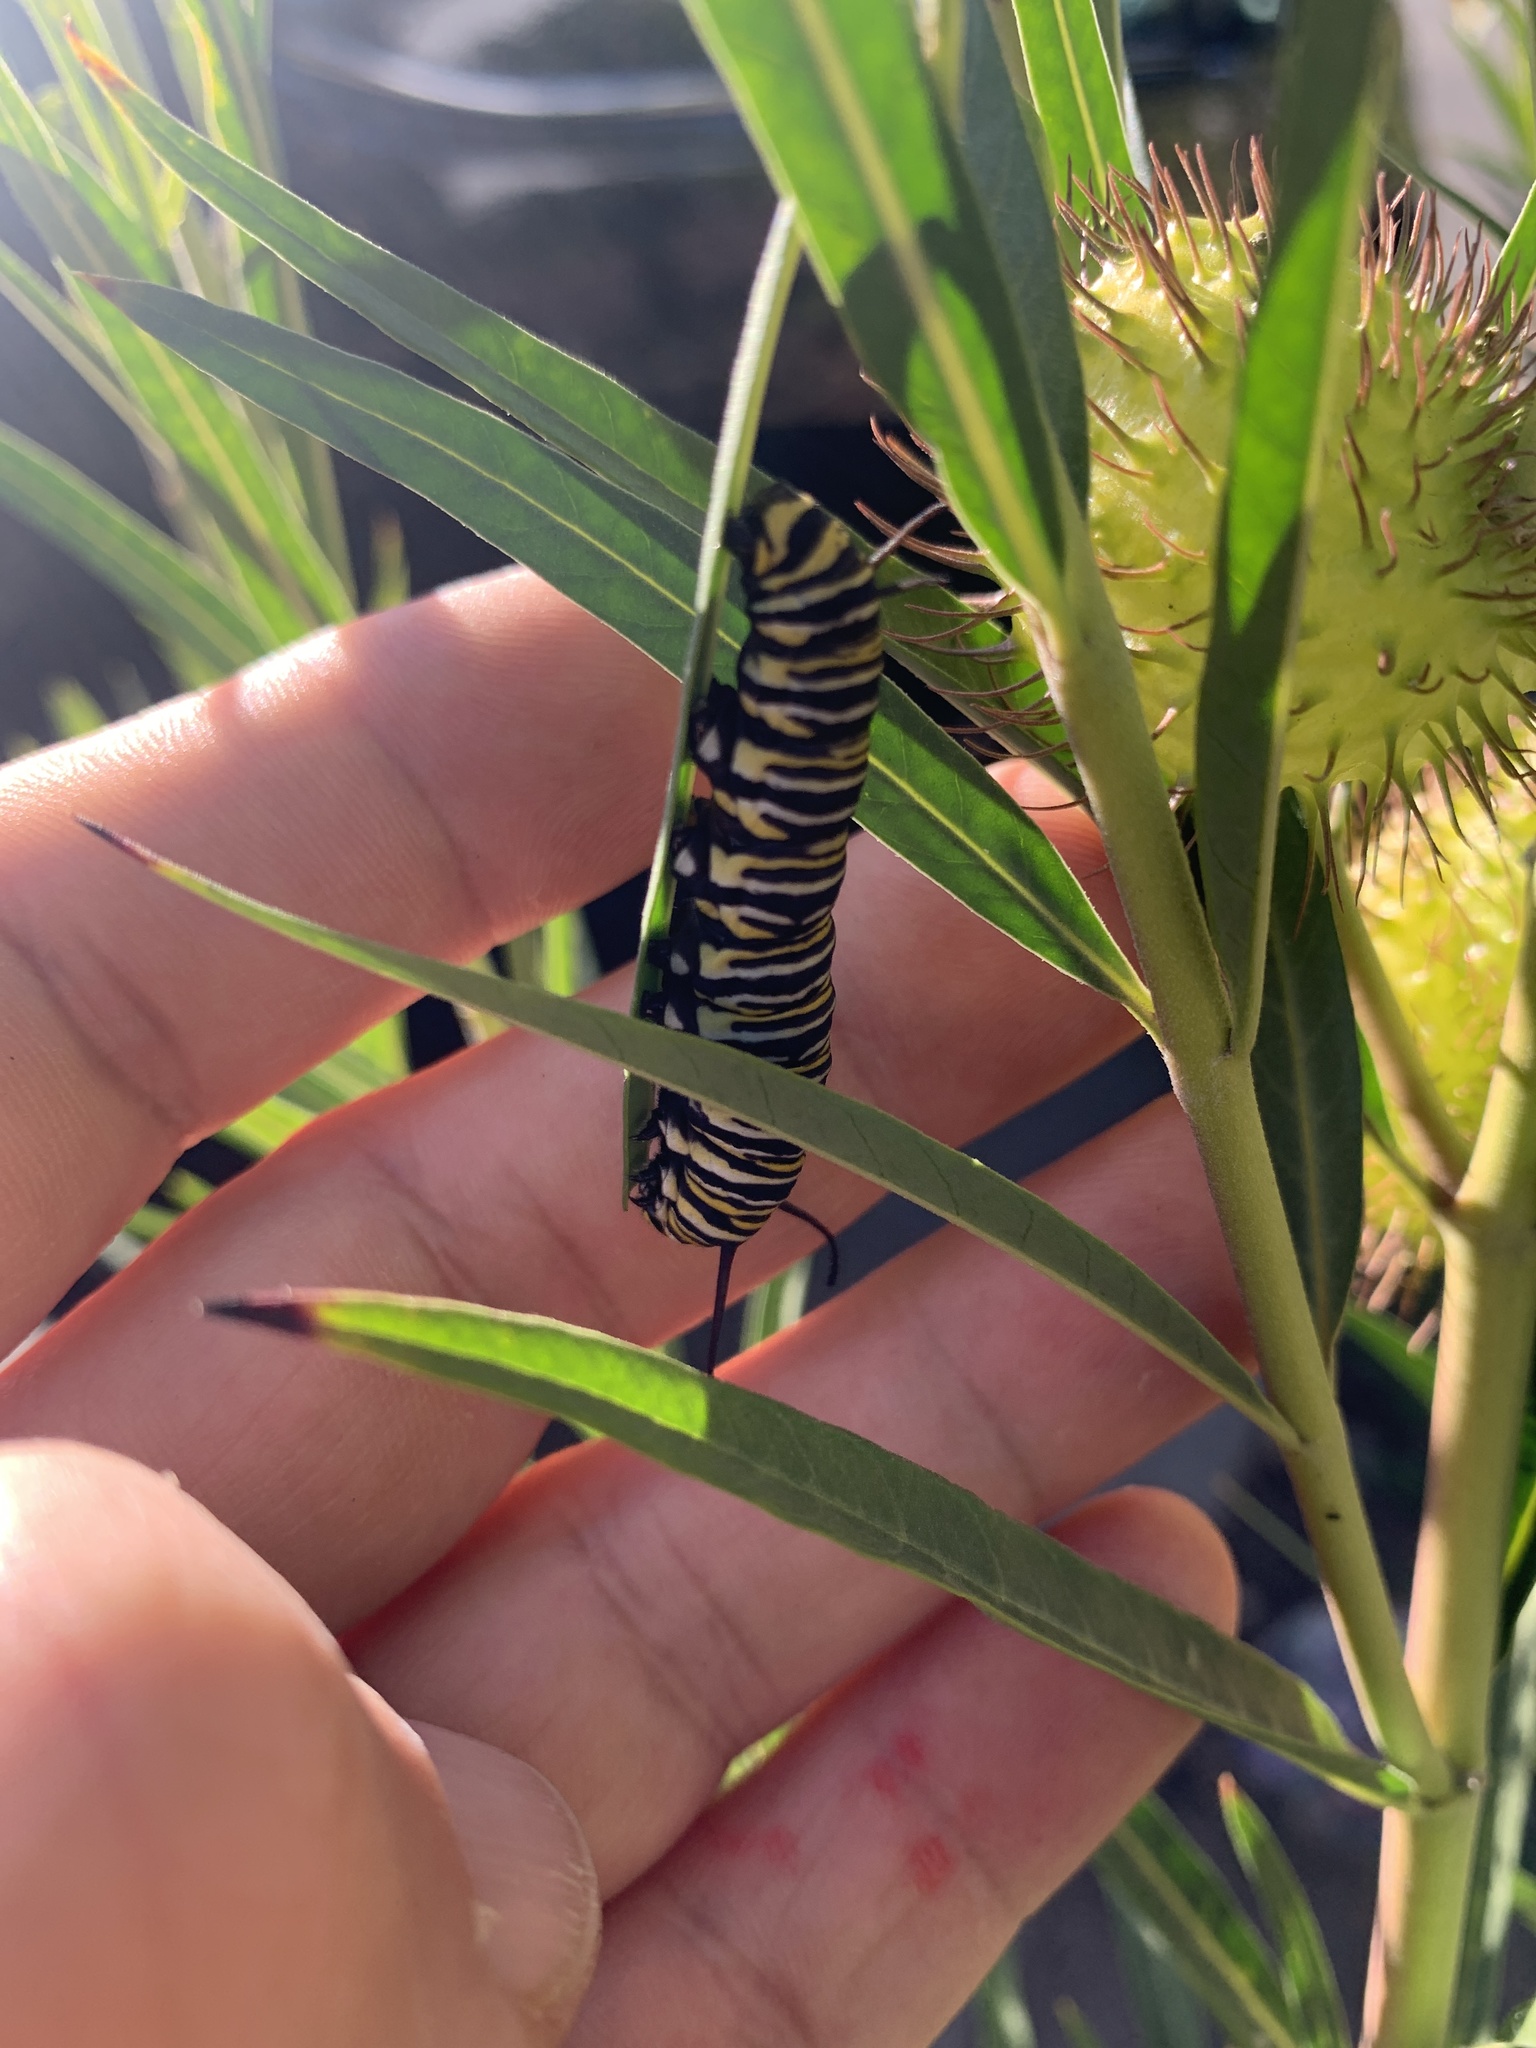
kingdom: Animalia
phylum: Arthropoda
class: Insecta
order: Lepidoptera
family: Nymphalidae
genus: Danaus
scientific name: Danaus plexippus
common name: Monarch
